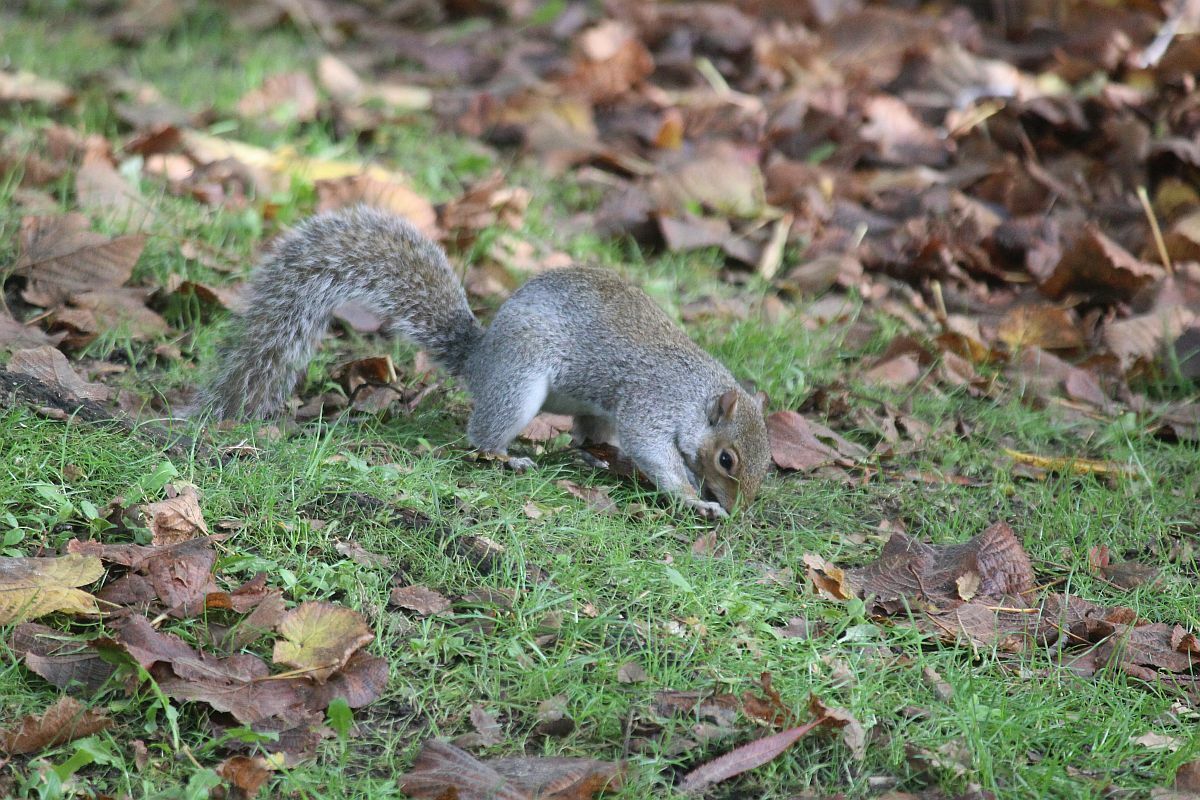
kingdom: Animalia
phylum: Chordata
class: Mammalia
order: Rodentia
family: Sciuridae
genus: Sciurus
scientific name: Sciurus carolinensis
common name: Eastern gray squirrel
